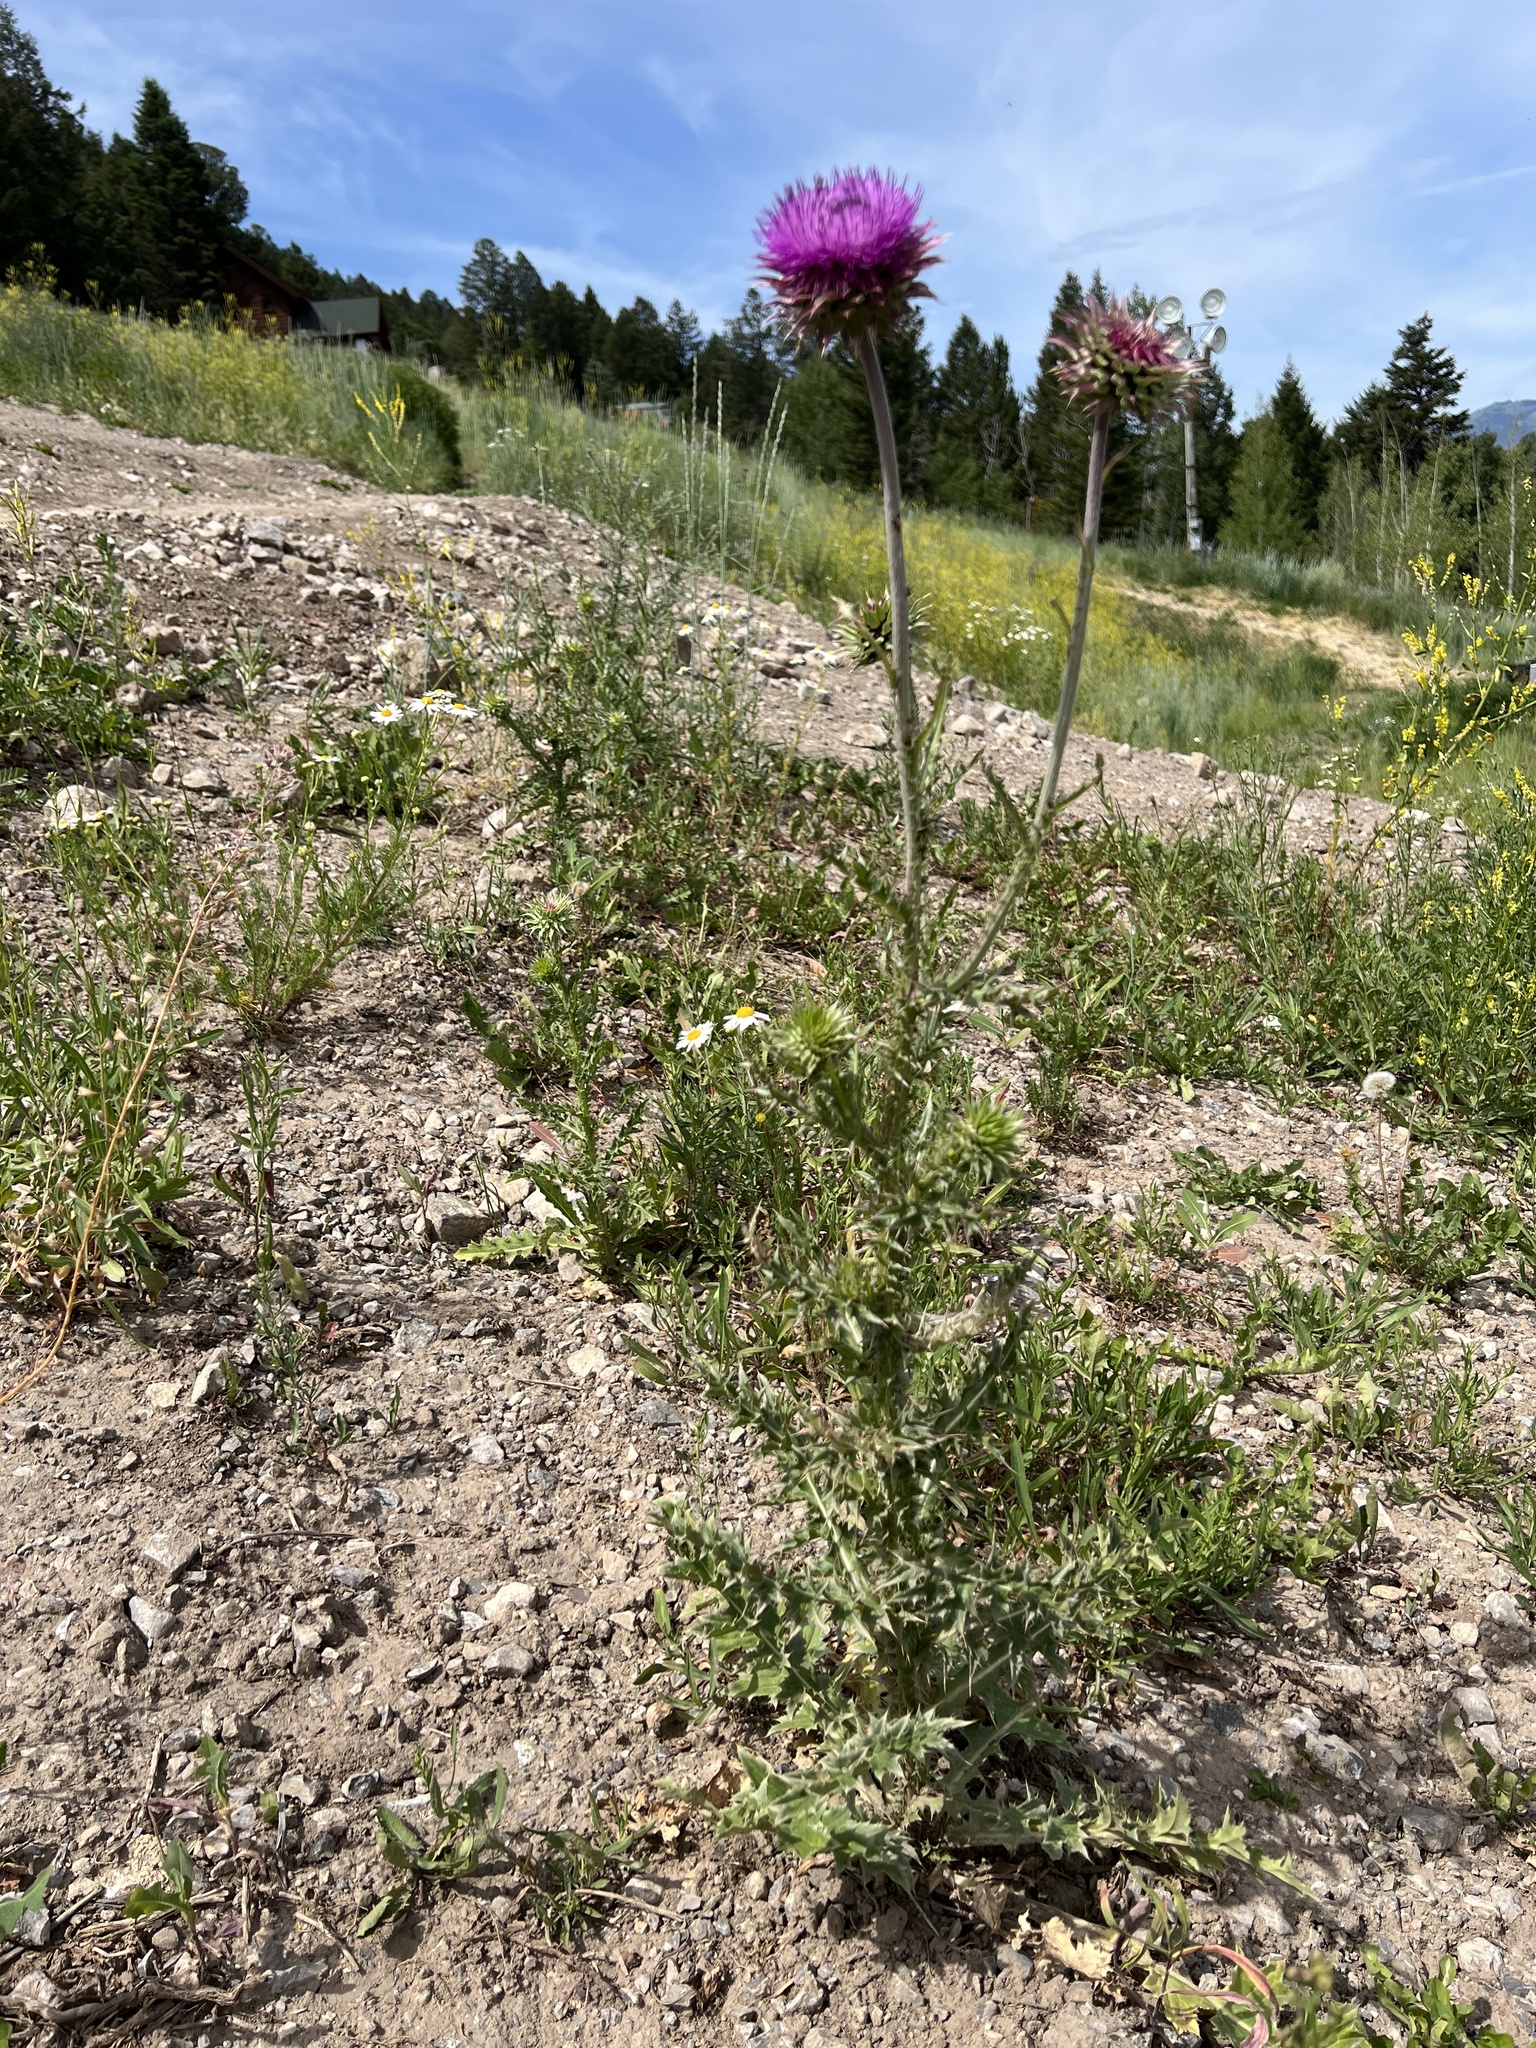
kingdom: Plantae
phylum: Tracheophyta
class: Magnoliopsida
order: Asterales
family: Asteraceae
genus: Carduus
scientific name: Carduus nutans
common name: Musk thistle
